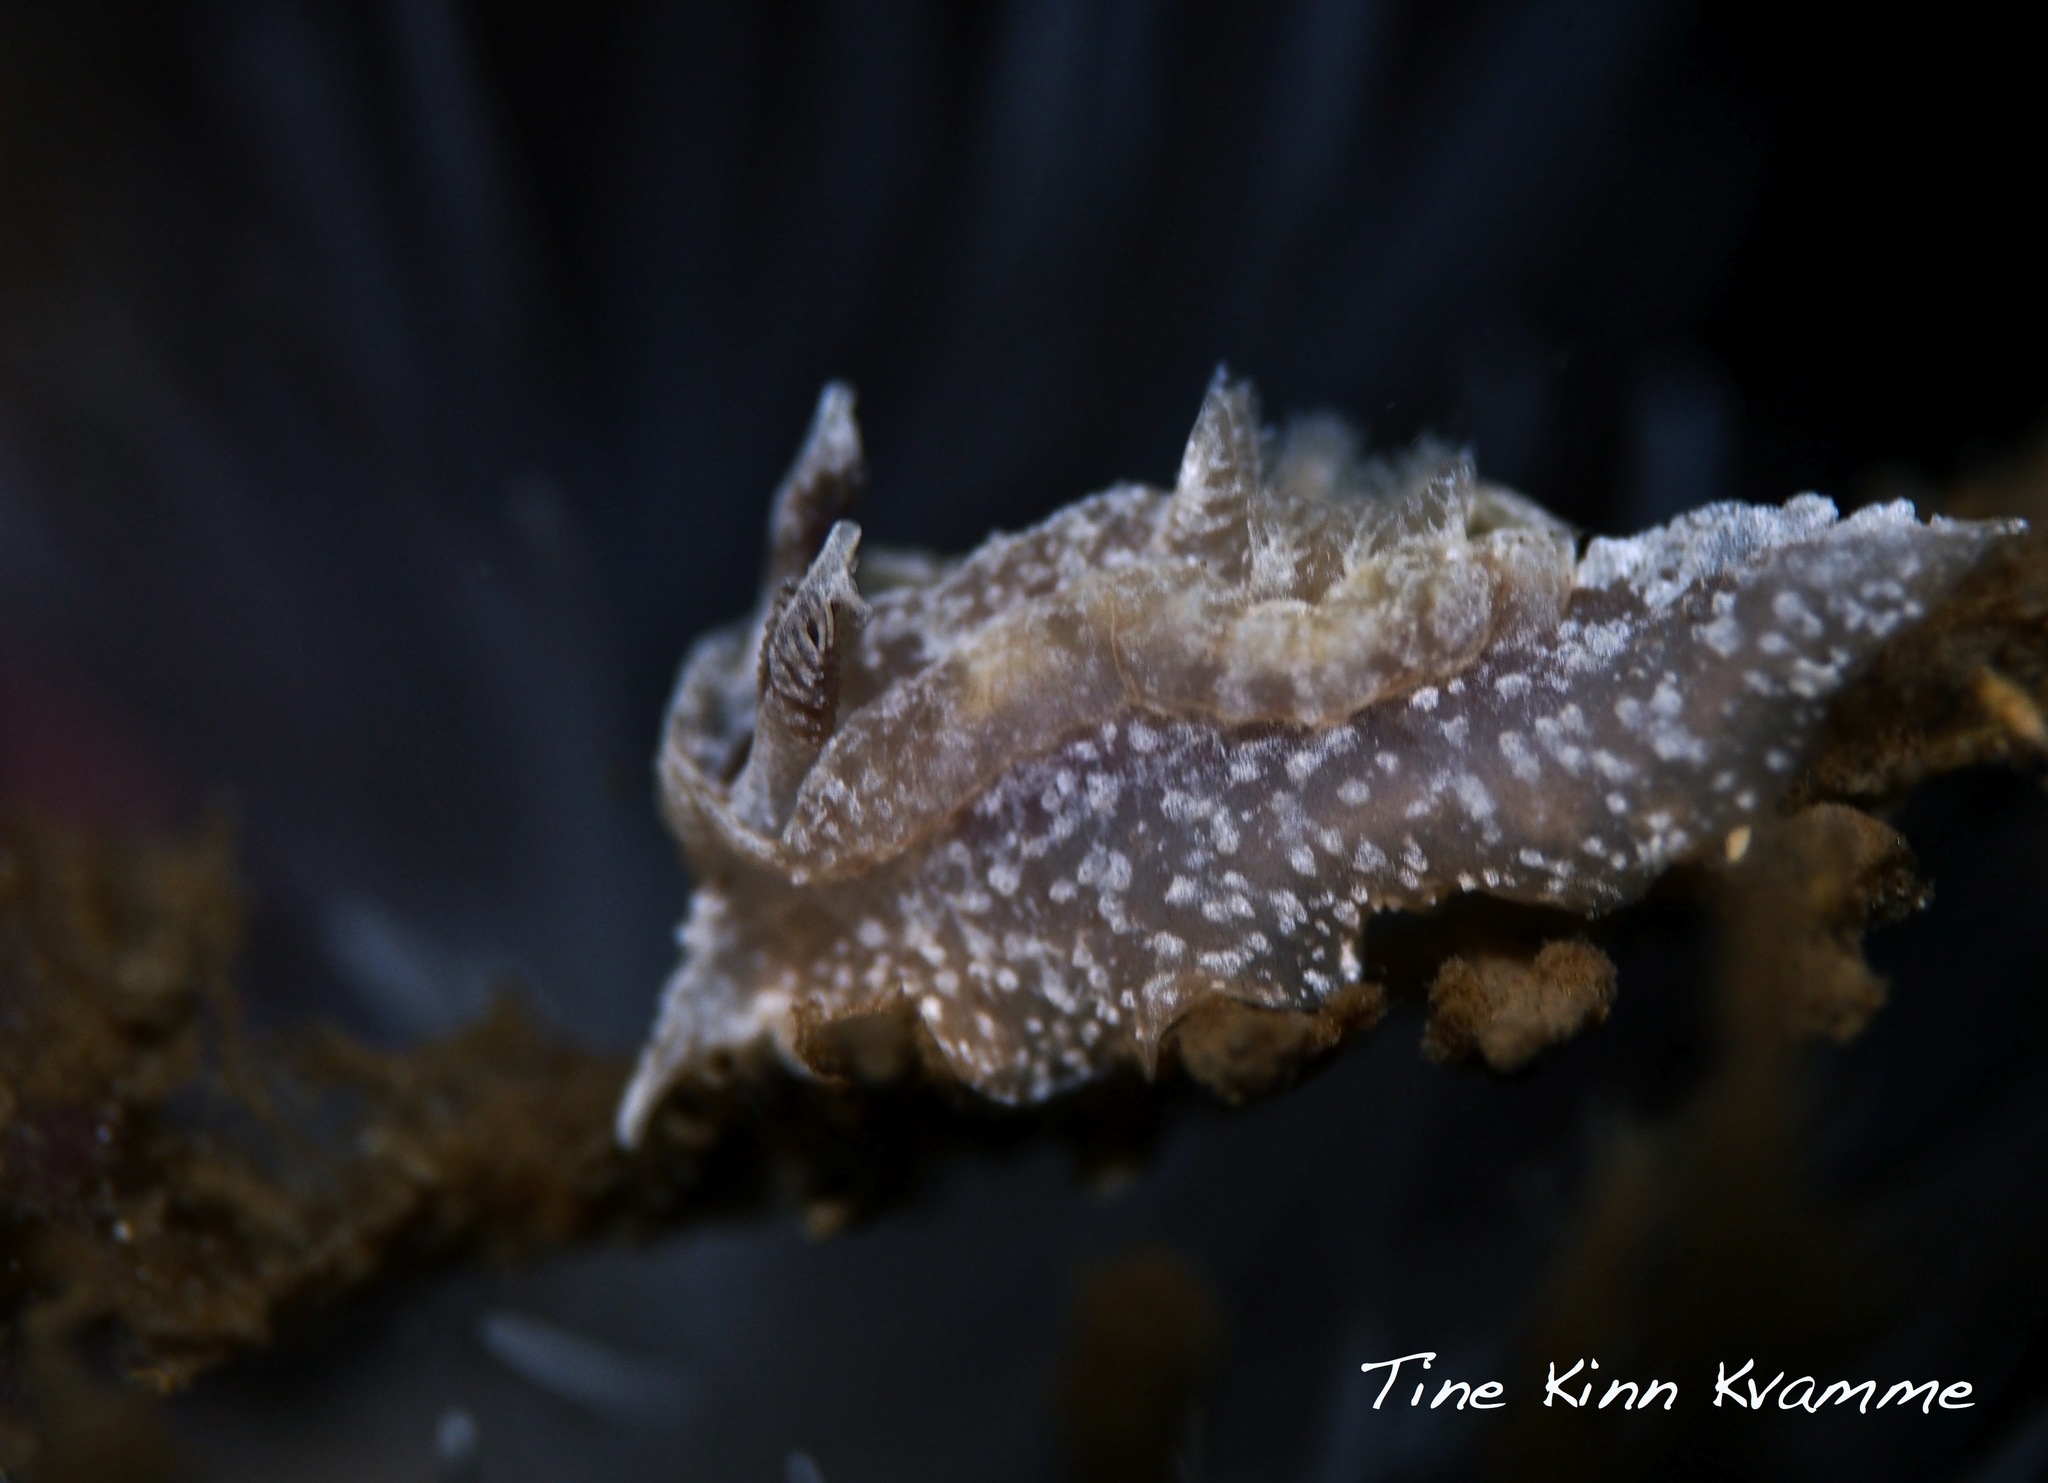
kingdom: Animalia
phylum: Mollusca
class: Gastropoda
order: Nudibranchia
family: Goniodorididae
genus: Pelagella
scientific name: Pelagella castanea
